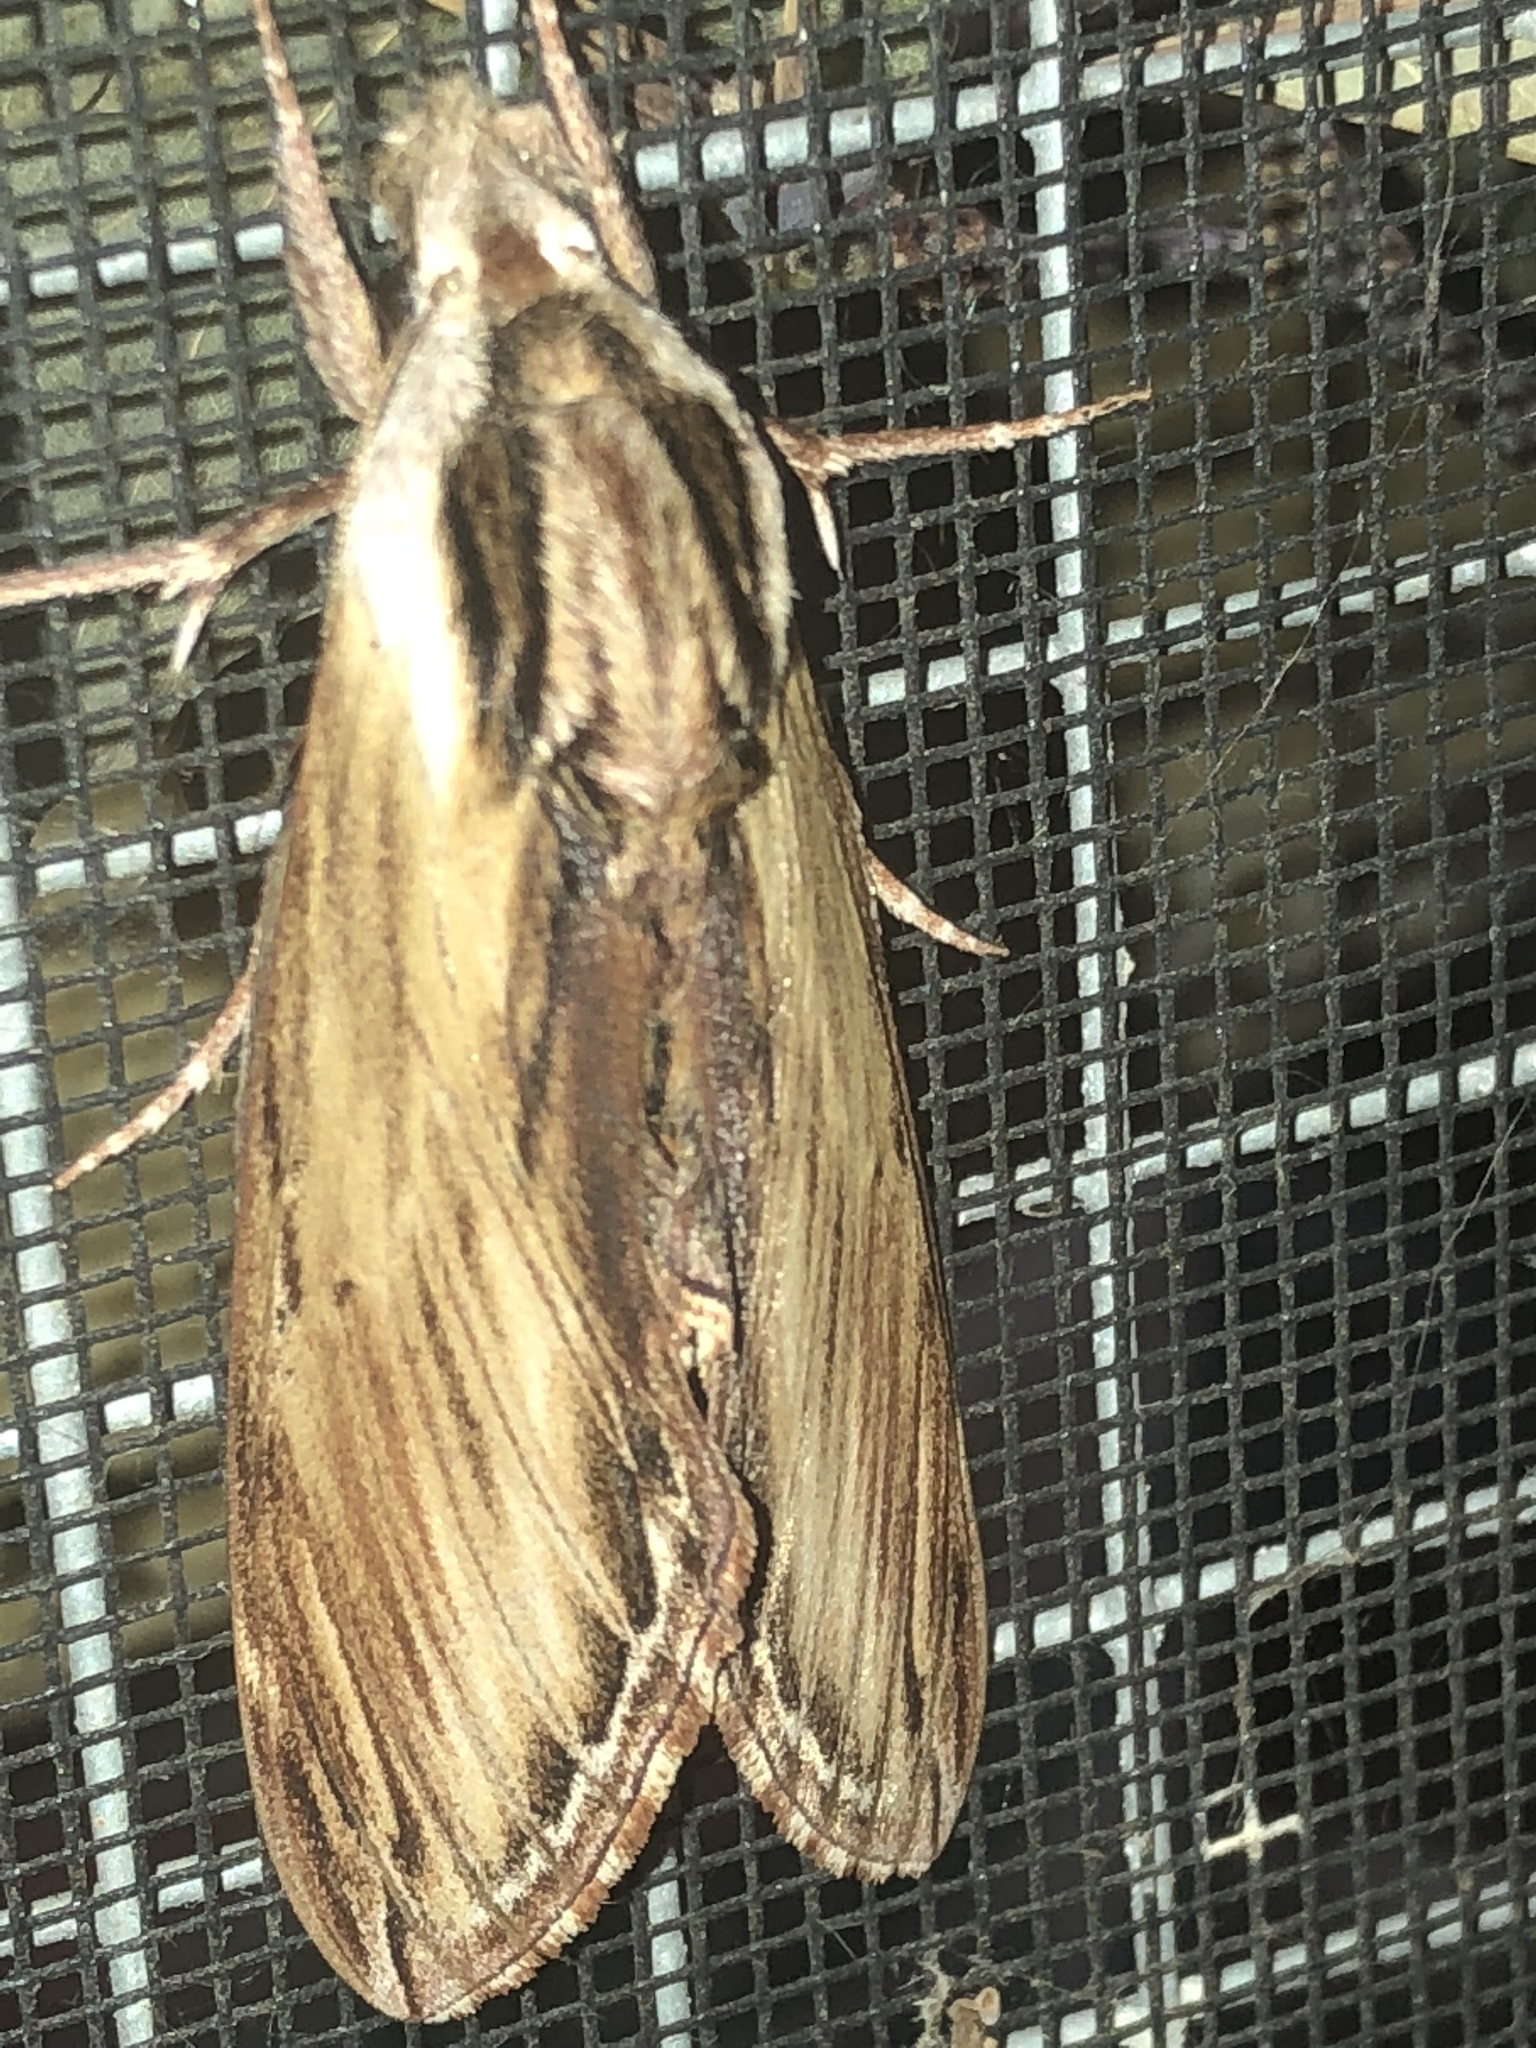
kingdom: Animalia
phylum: Arthropoda
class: Insecta
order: Lepidoptera
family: Sphingidae
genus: Sphinx
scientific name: Sphinx kalmiae
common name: Laurel sphinx
